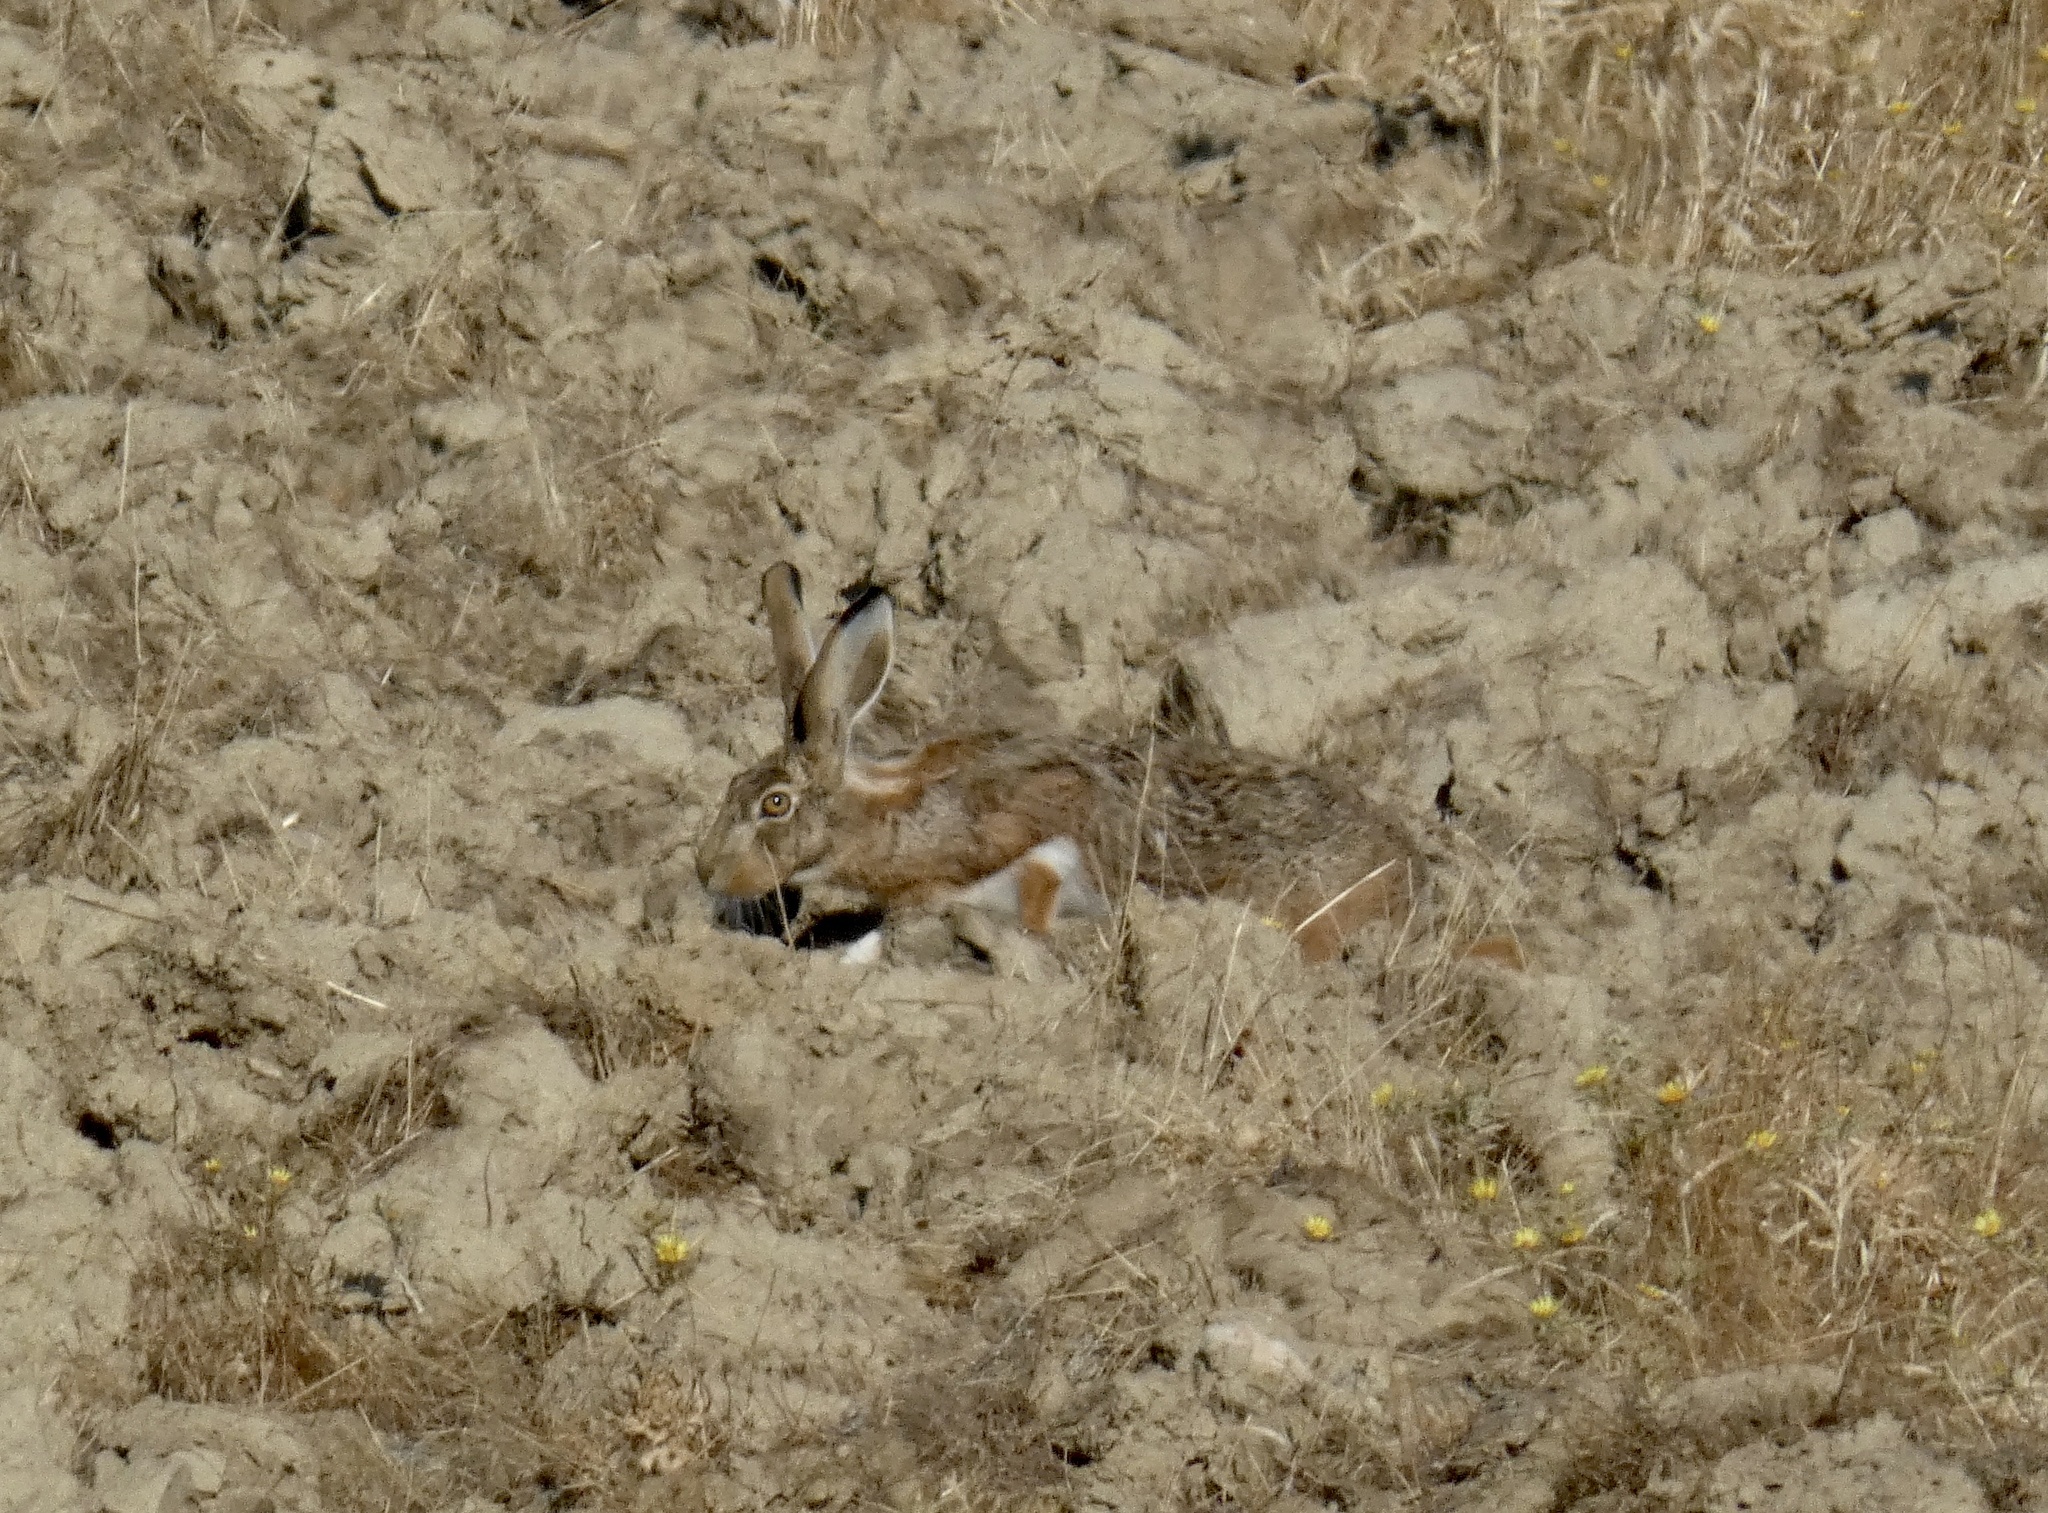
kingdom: Animalia
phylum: Chordata
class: Mammalia
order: Lagomorpha
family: Leporidae
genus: Lepus
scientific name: Lepus granatensis
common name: Granada hare
